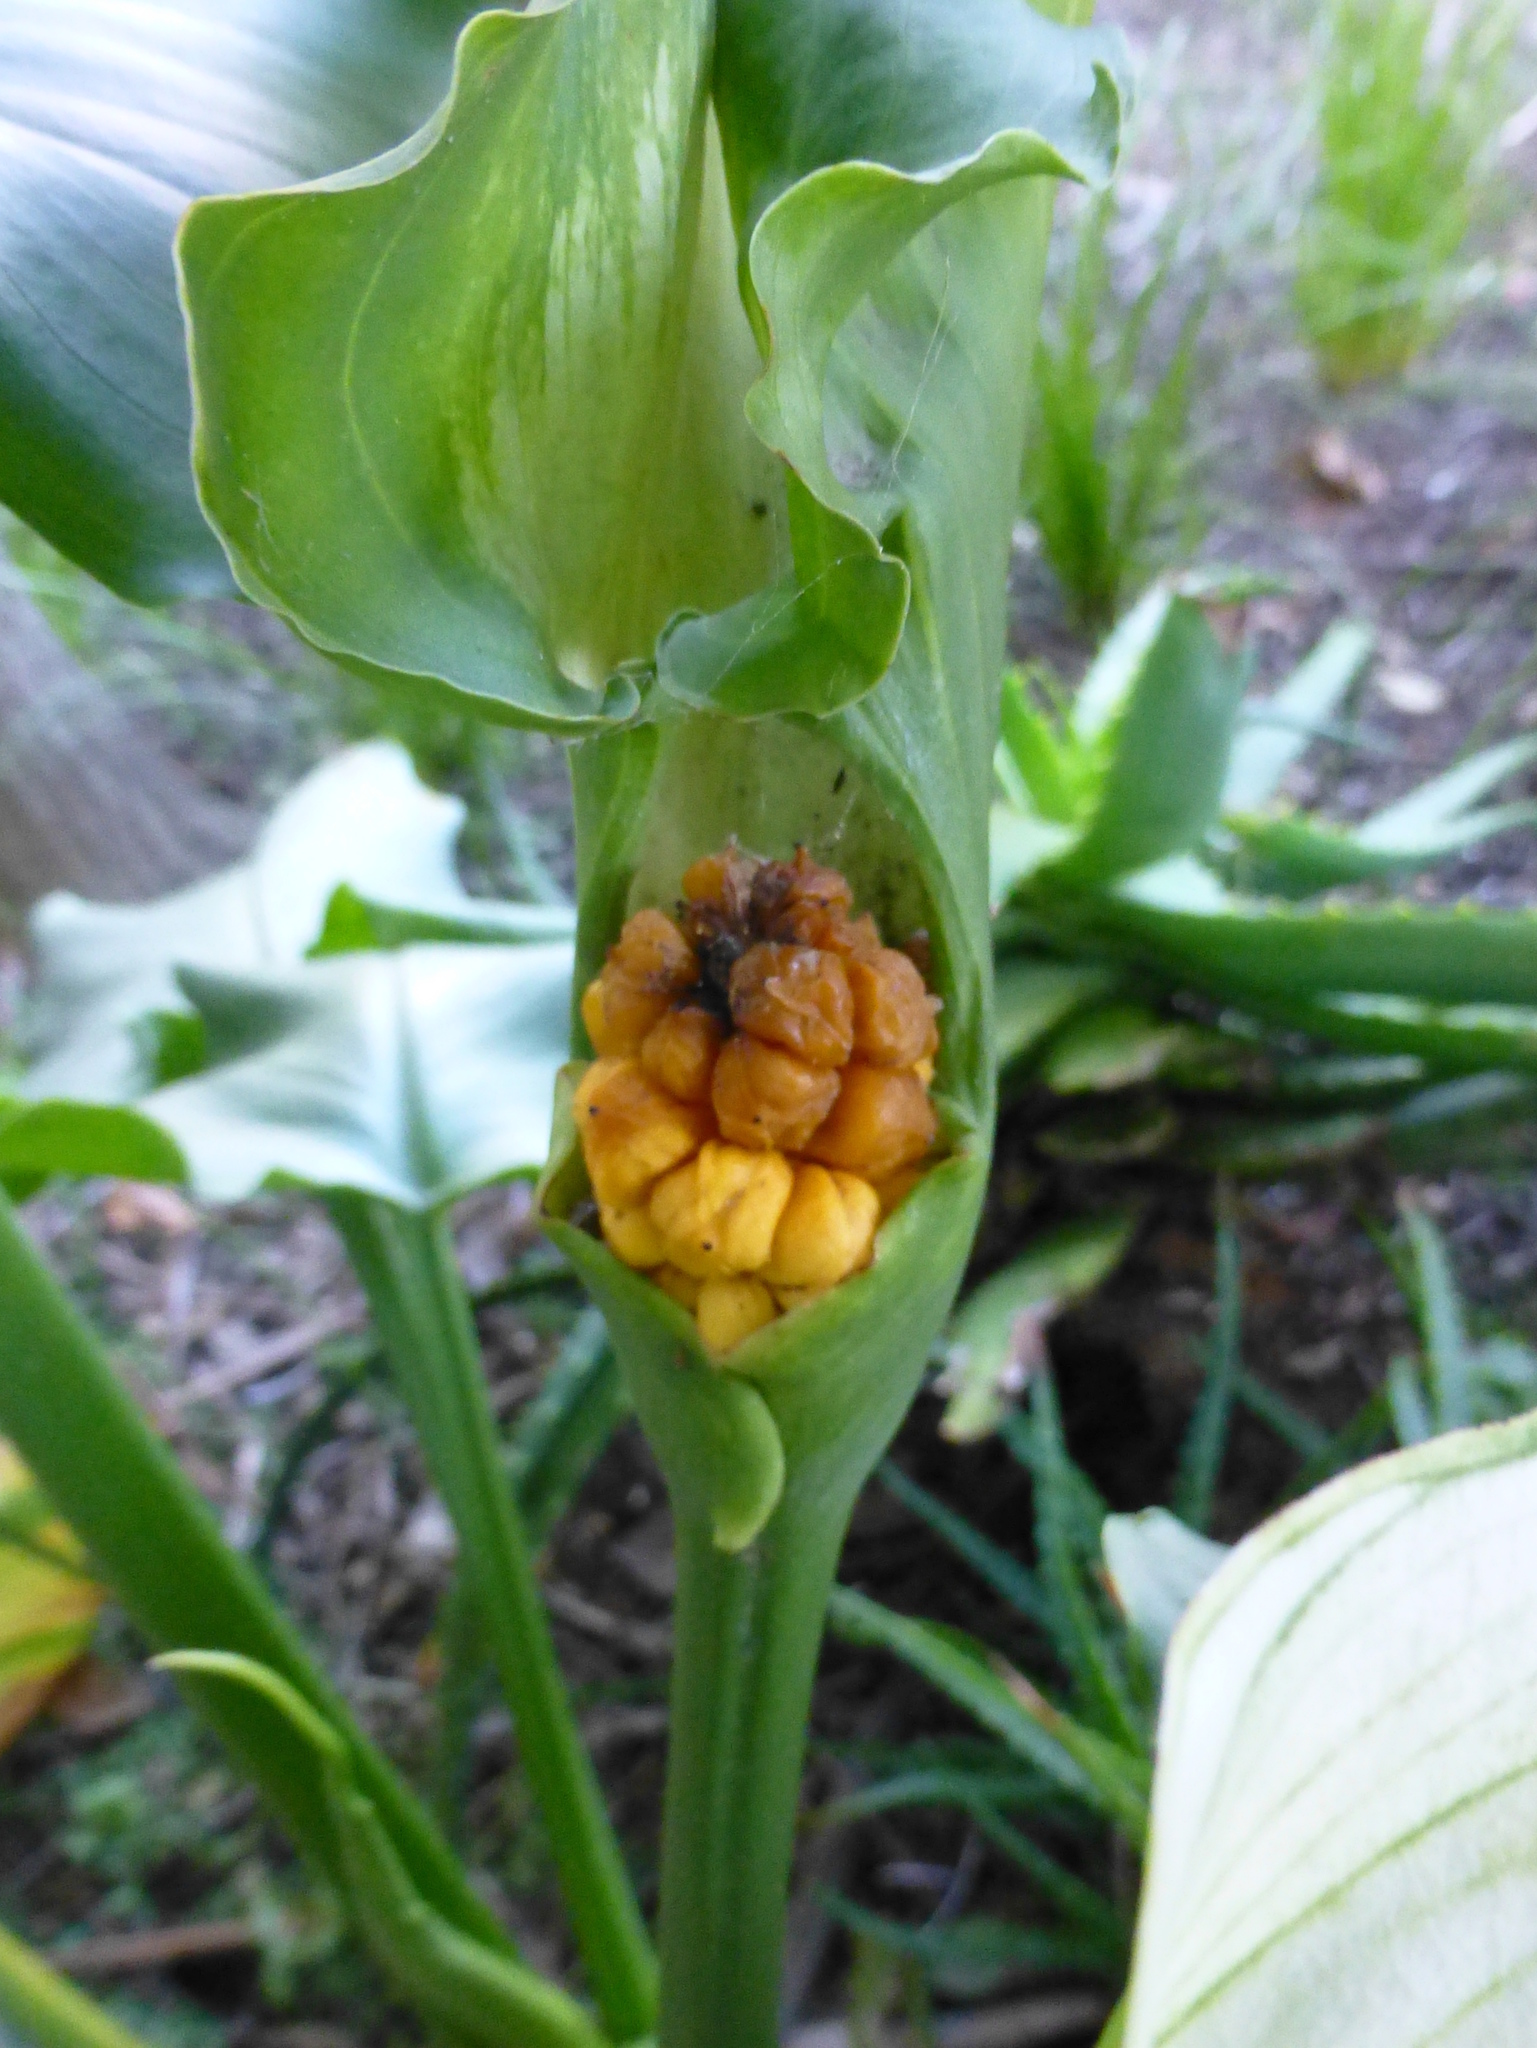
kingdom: Plantae
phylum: Tracheophyta
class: Liliopsida
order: Alismatales
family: Araceae
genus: Zantedeschia
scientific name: Zantedeschia aethiopica
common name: Altar-lily
